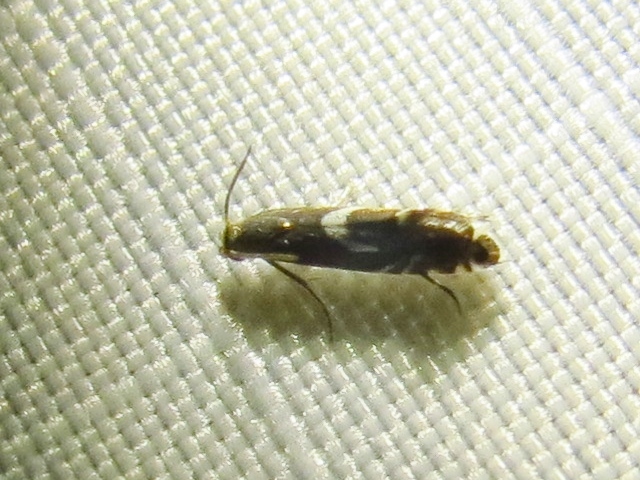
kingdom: Animalia
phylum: Arthropoda
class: Insecta
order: Lepidoptera
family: Glyphipterigidae
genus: Glyphipterix
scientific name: Glyphipterix Diploschizia impigritella
